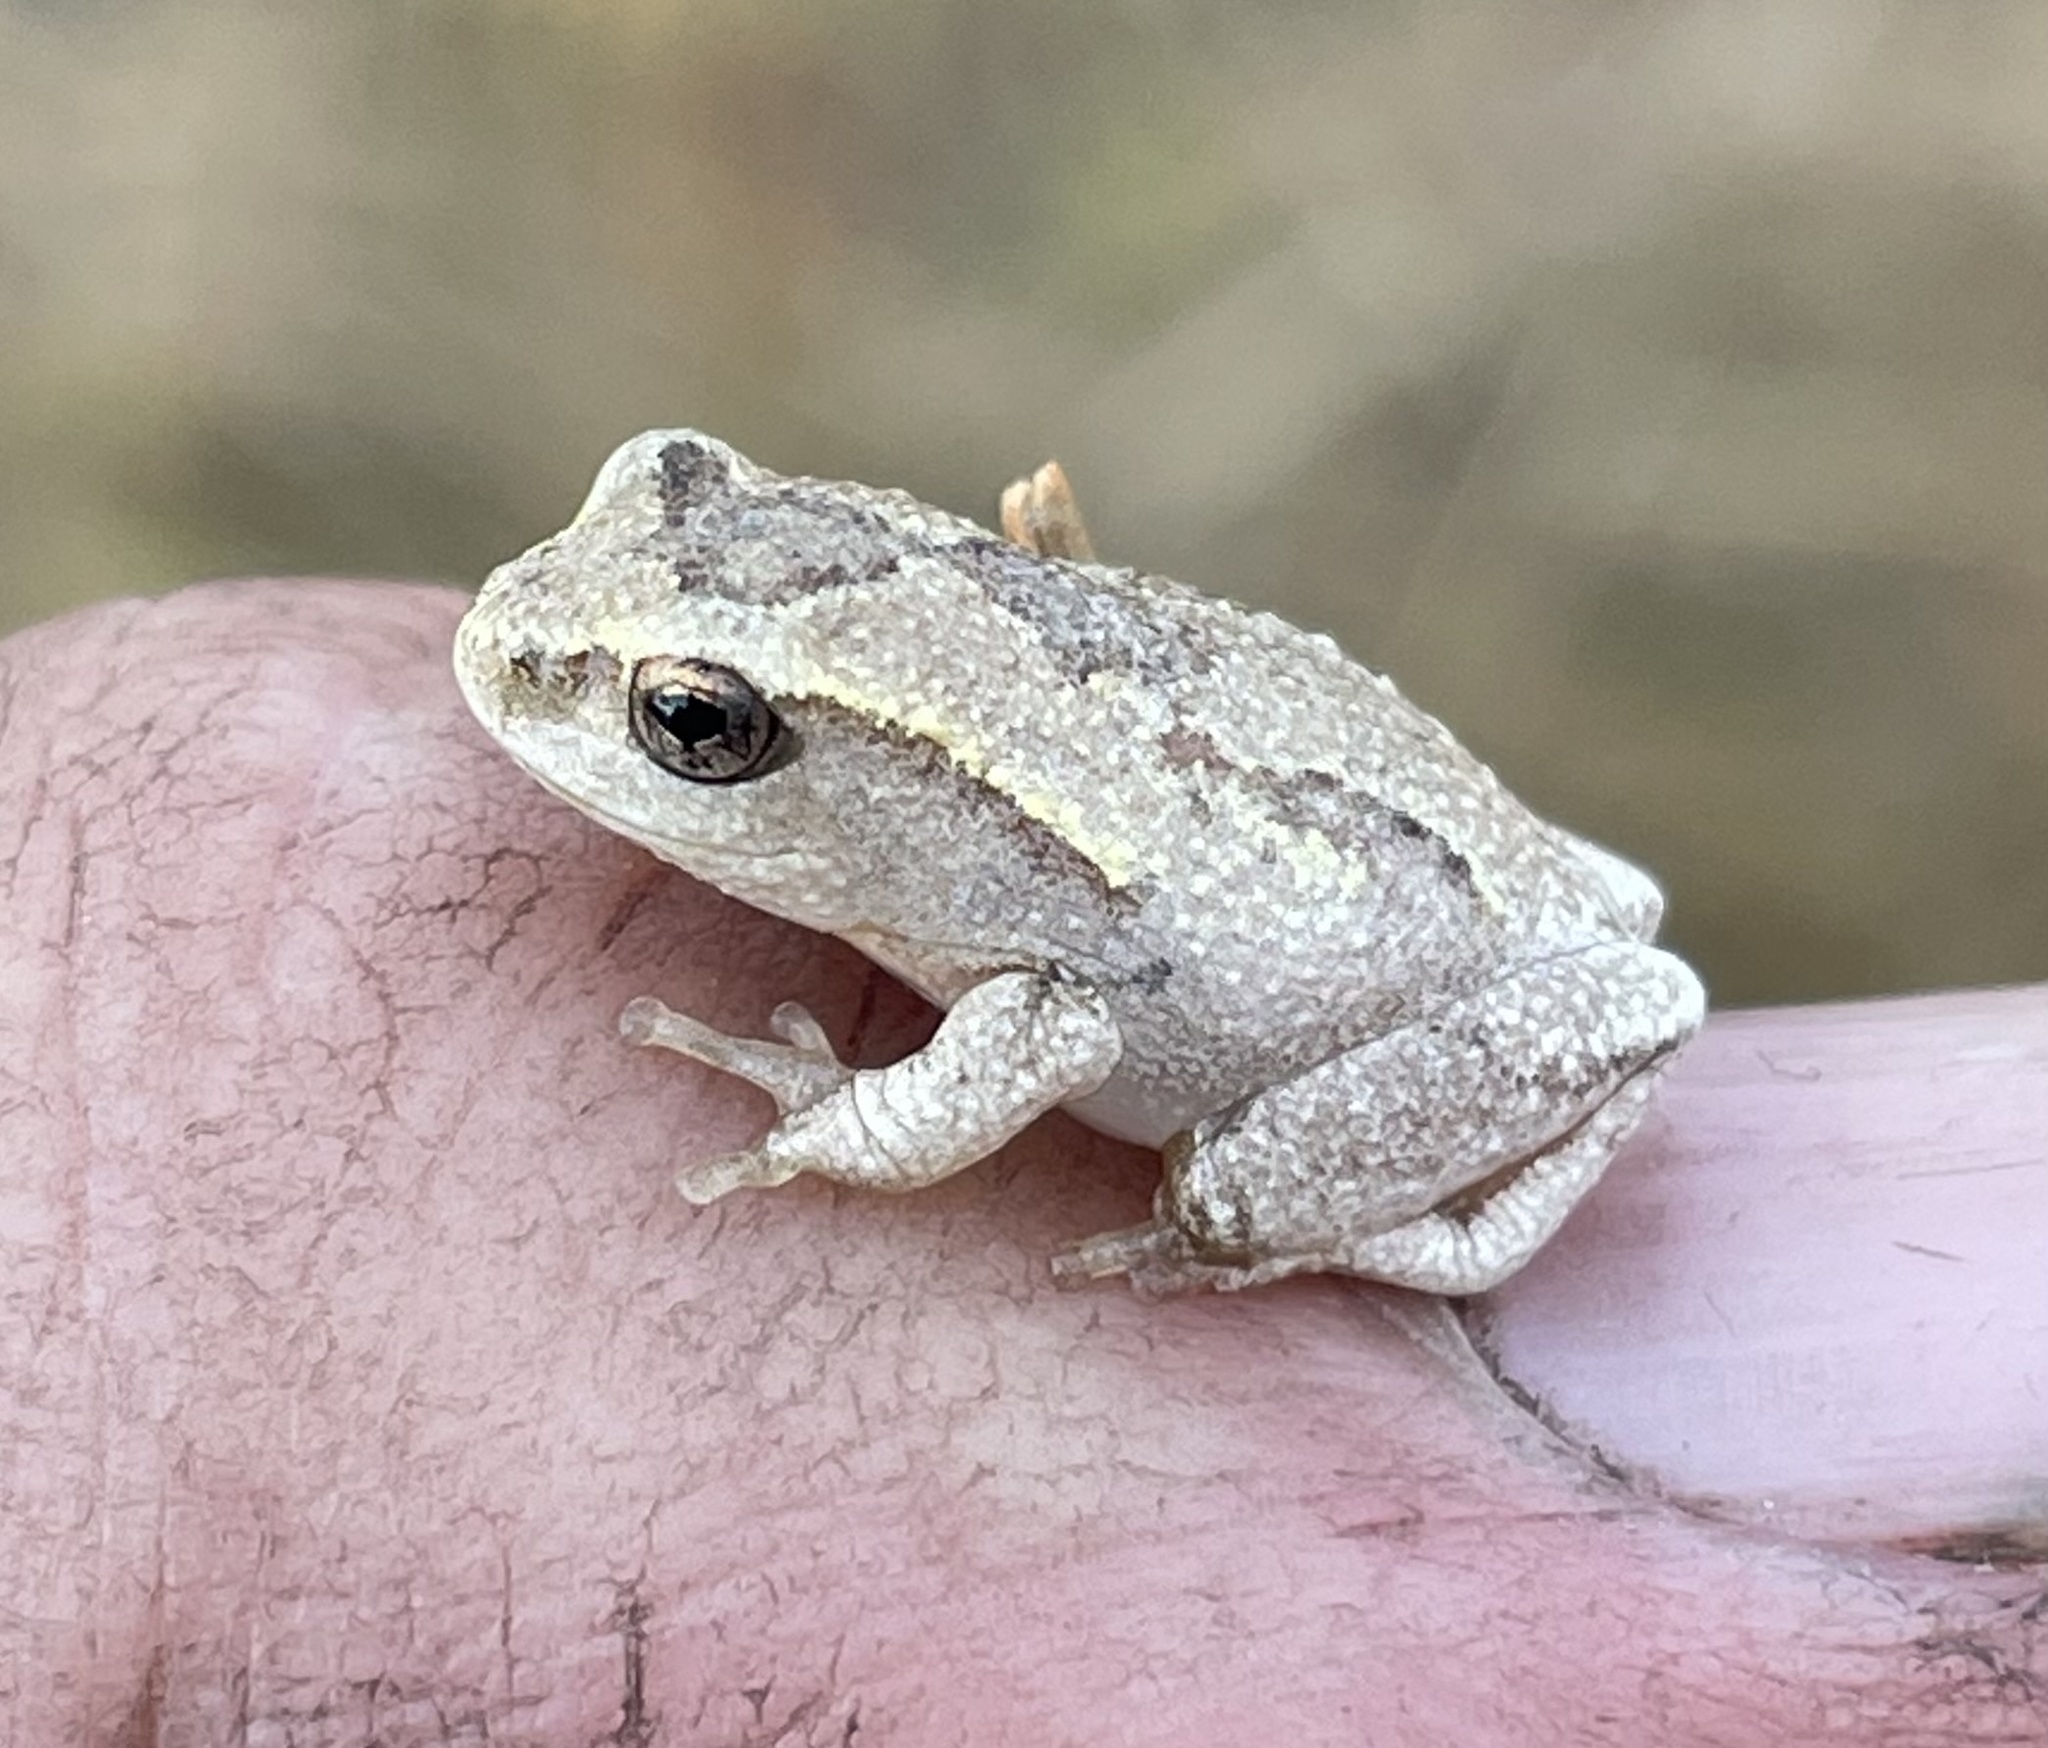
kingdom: Animalia
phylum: Chordata
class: Amphibia
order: Anura
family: Hyperoliidae
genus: Hyperolius
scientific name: Hyperolius parallelus
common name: Angolan reed frog
